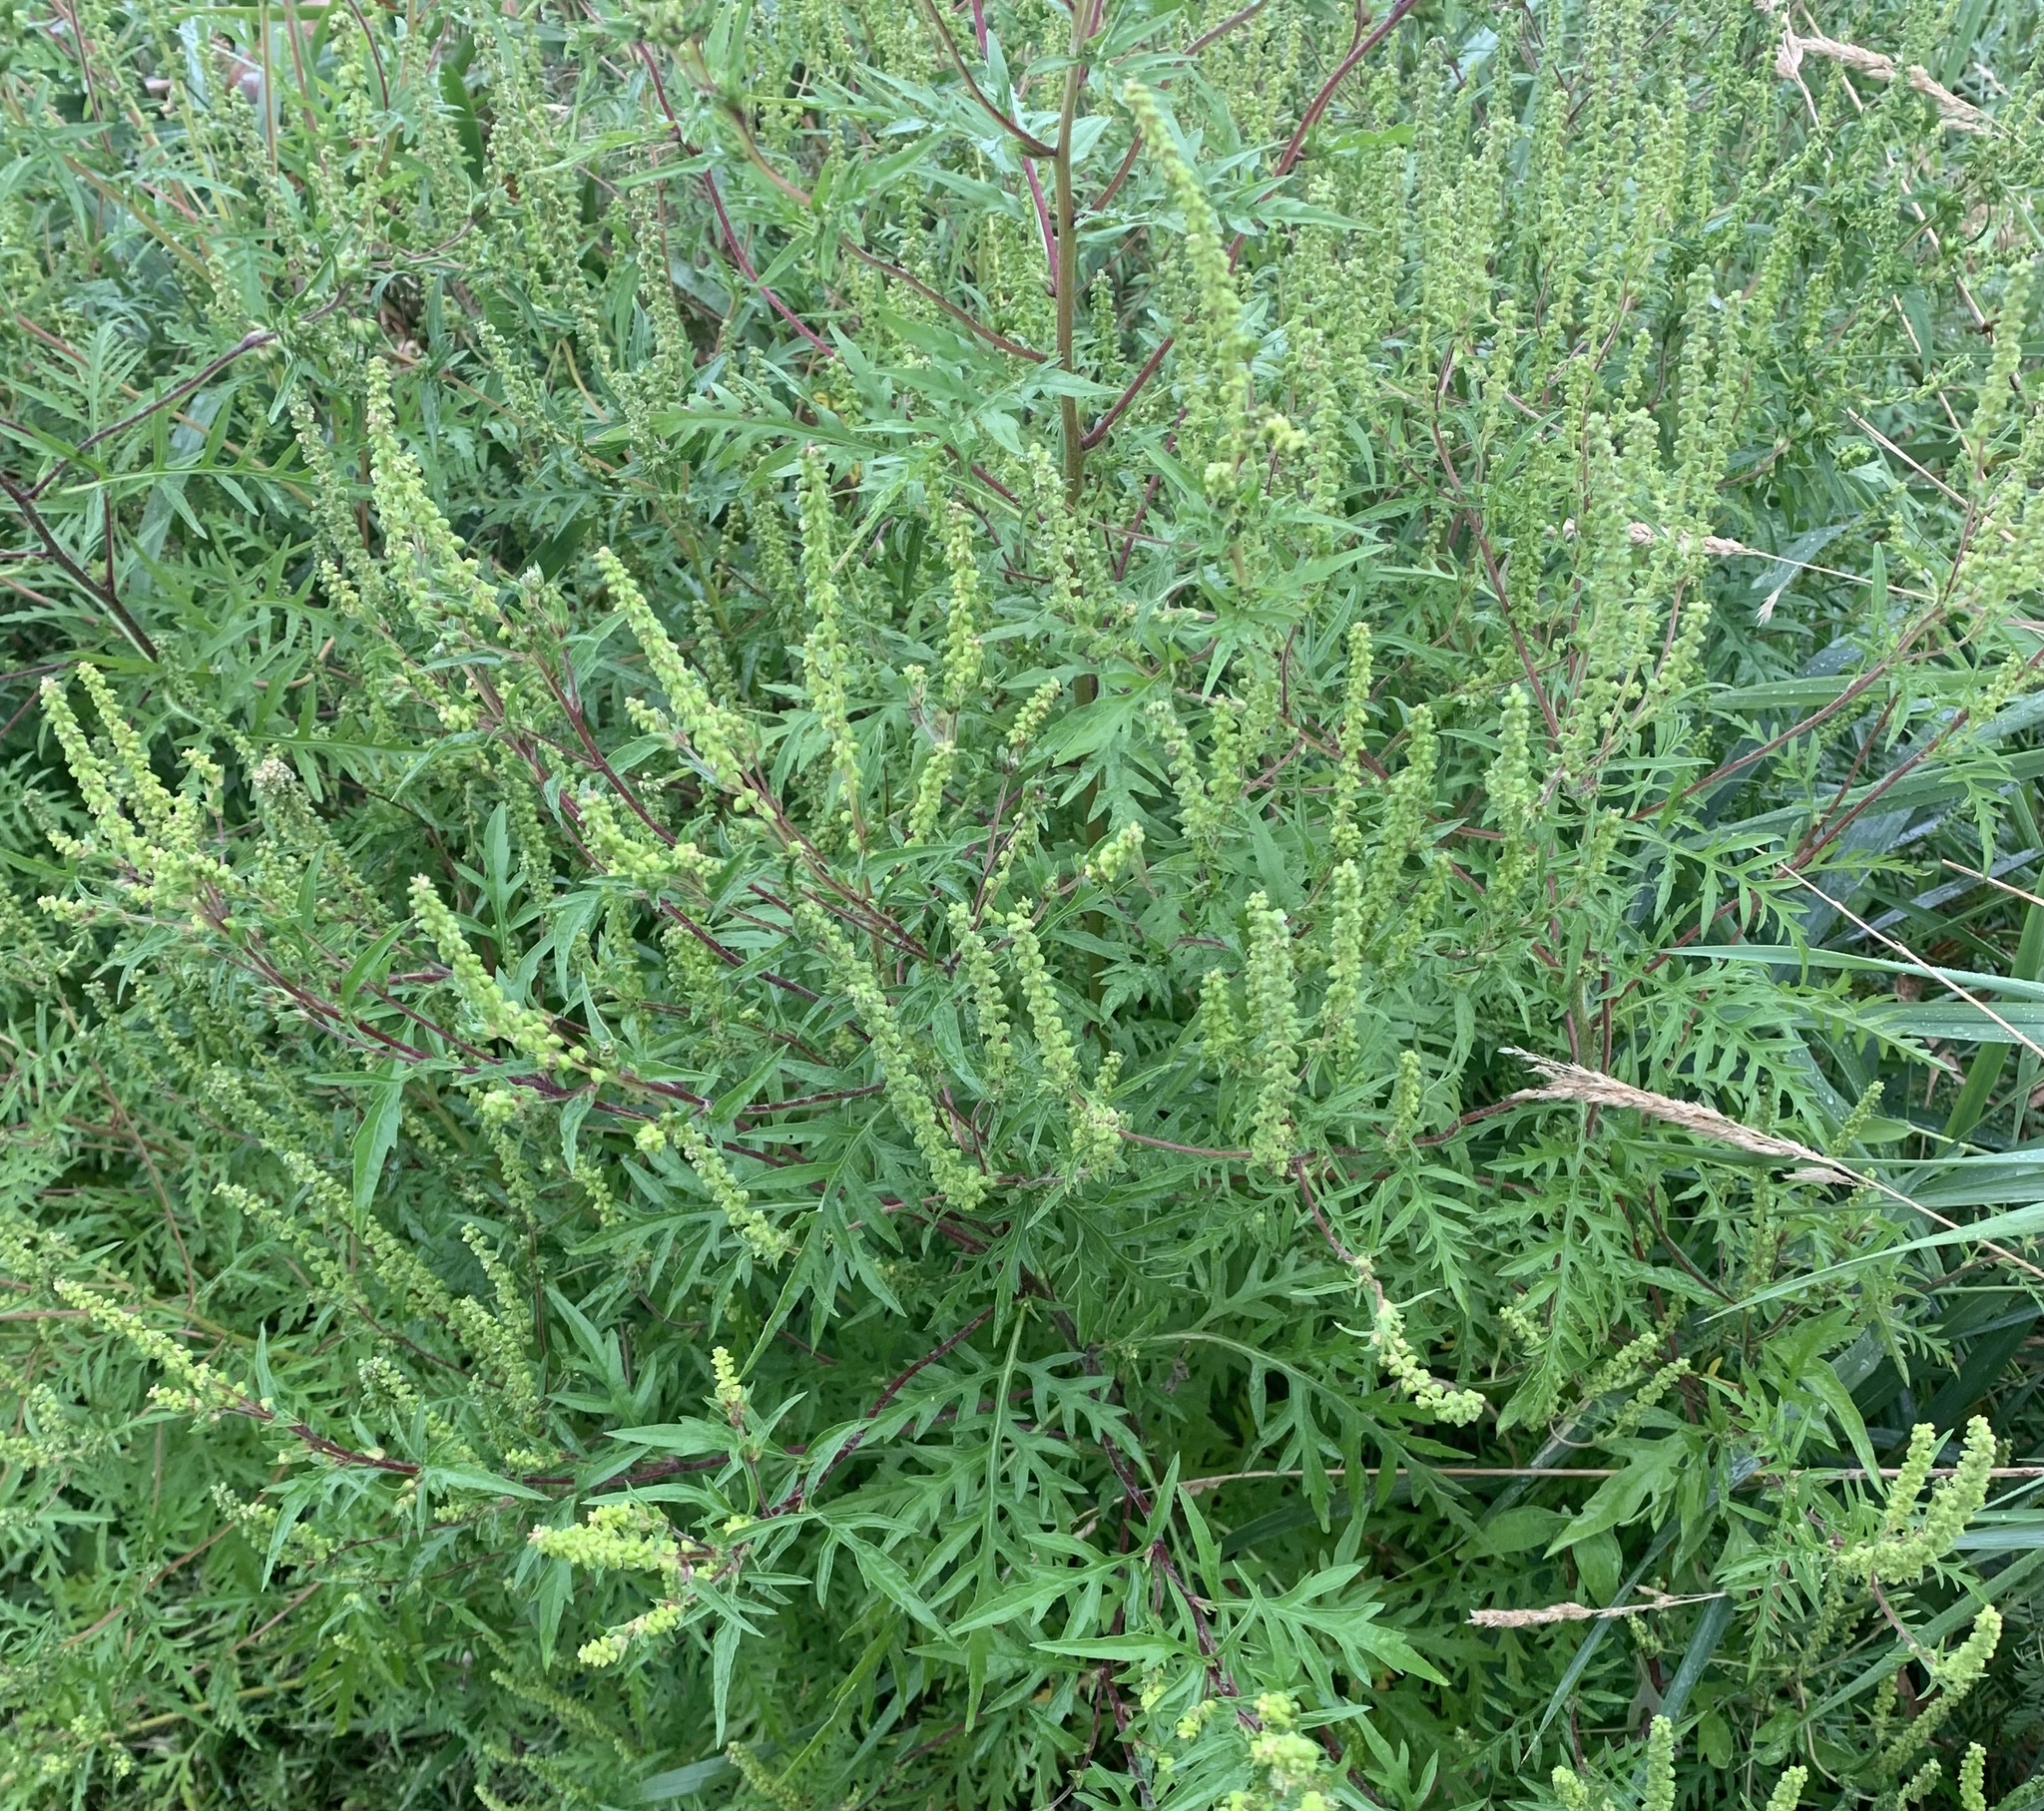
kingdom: Plantae
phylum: Tracheophyta
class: Magnoliopsida
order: Asterales
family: Asteraceae
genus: Ambrosia
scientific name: Ambrosia artemisiifolia
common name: Annual ragweed
